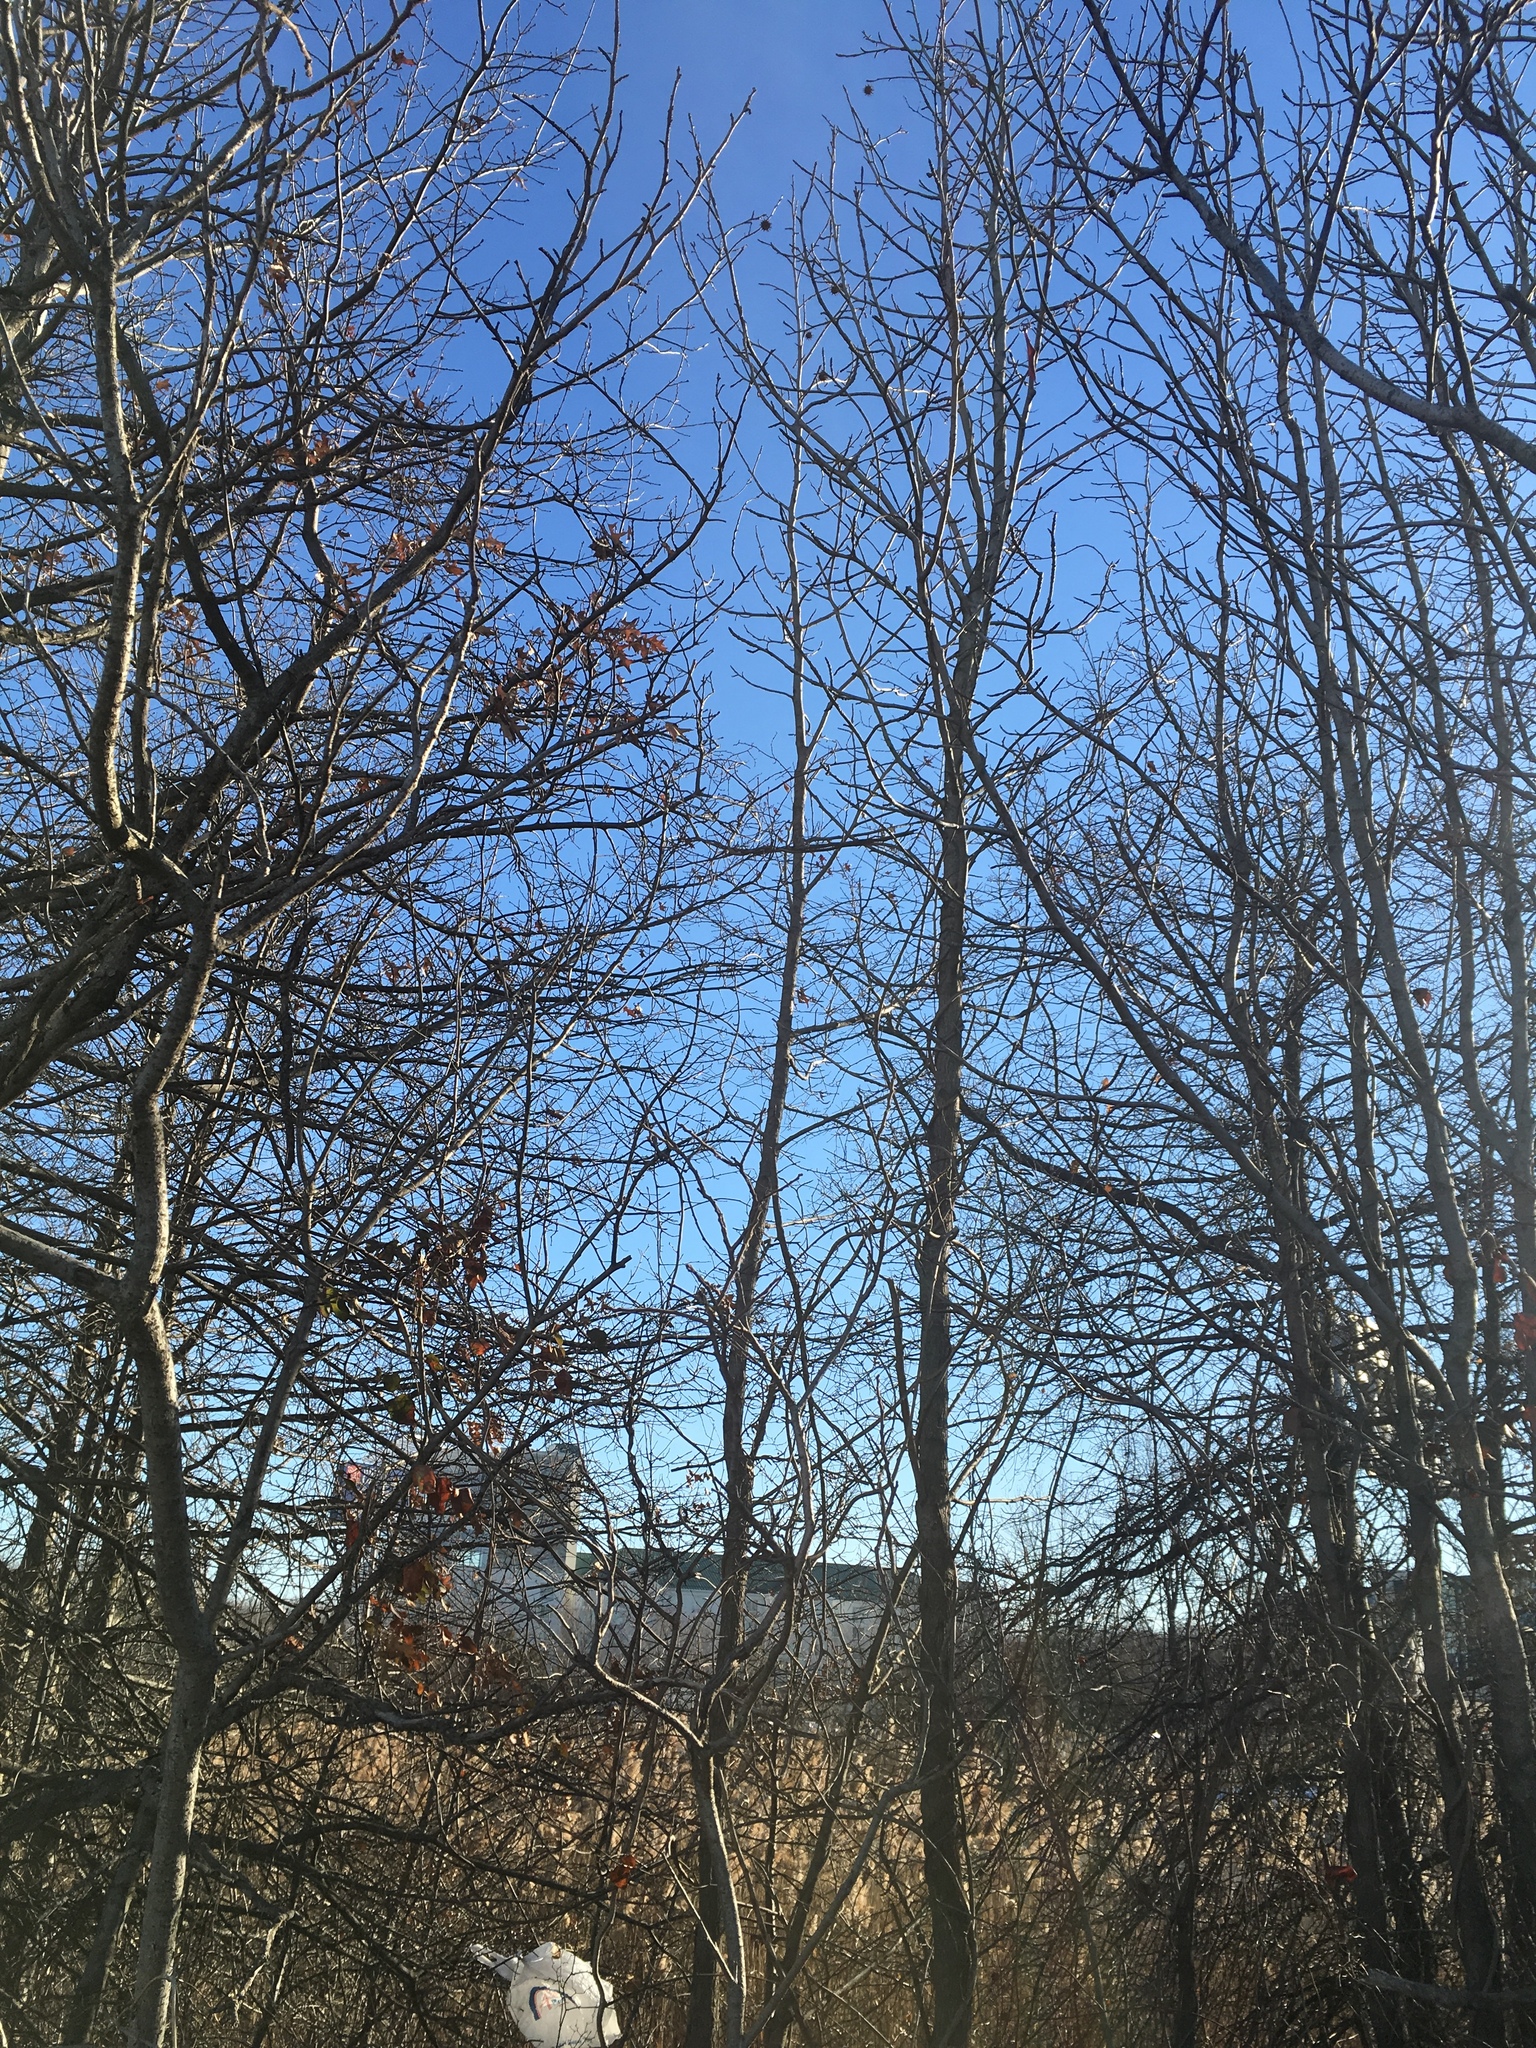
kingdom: Plantae
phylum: Tracheophyta
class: Magnoliopsida
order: Saxifragales
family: Altingiaceae
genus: Liquidambar
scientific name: Liquidambar styraciflua
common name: Sweet gum
